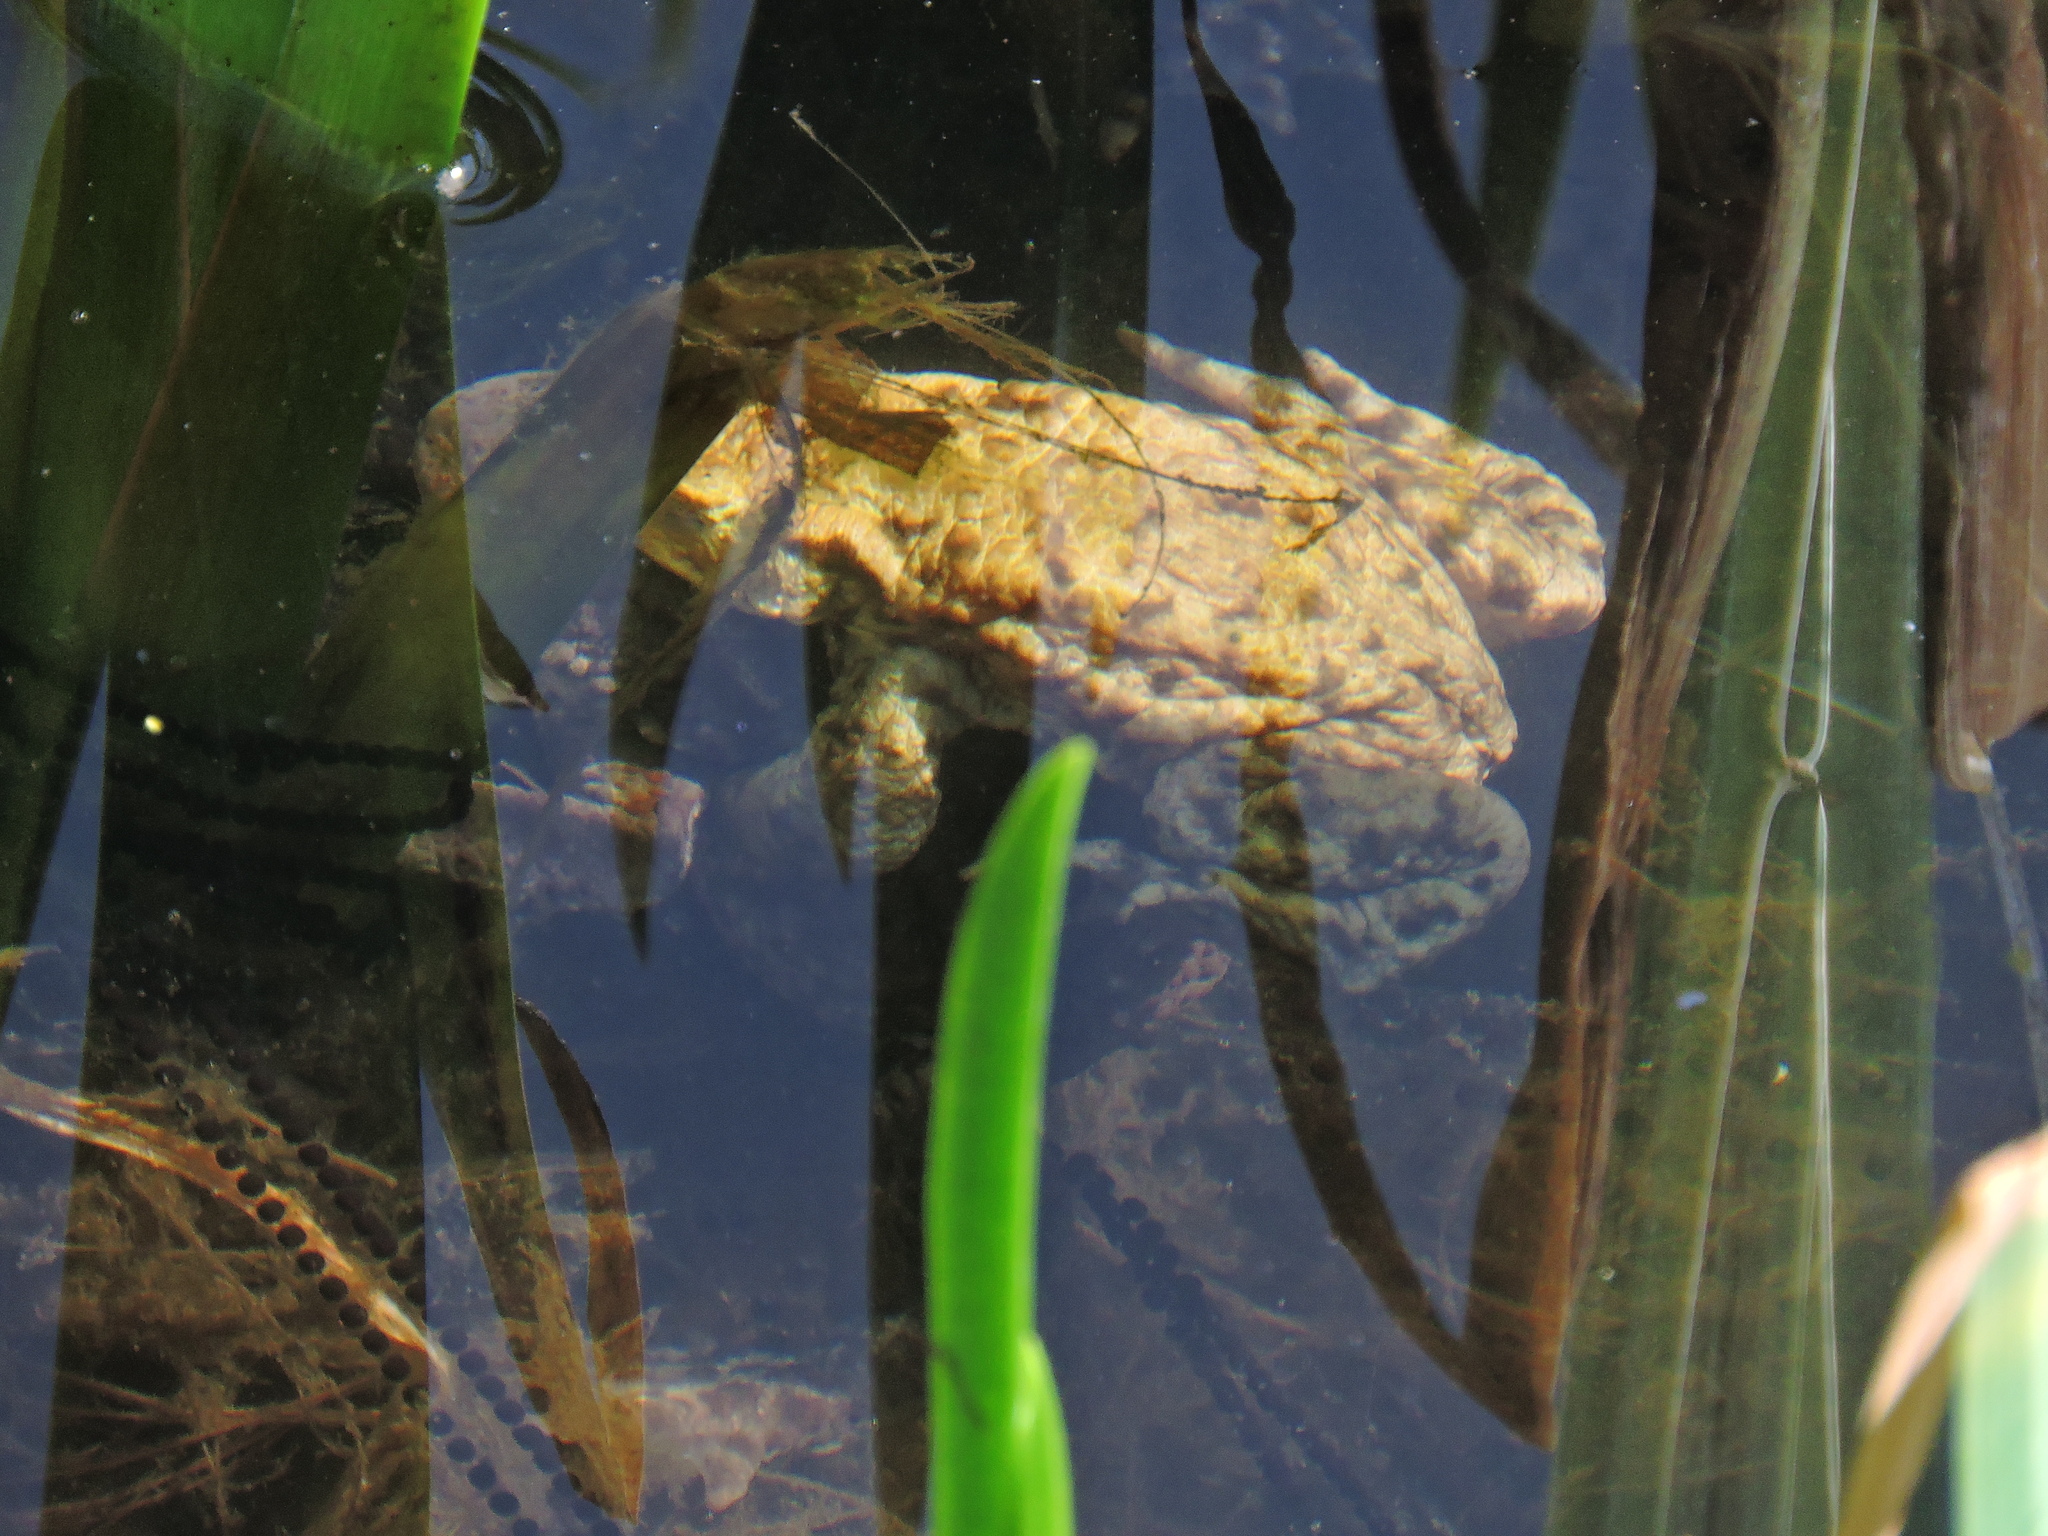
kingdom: Animalia
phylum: Chordata
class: Amphibia
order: Anura
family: Bufonidae
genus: Bufo
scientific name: Bufo bufo
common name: Common toad
